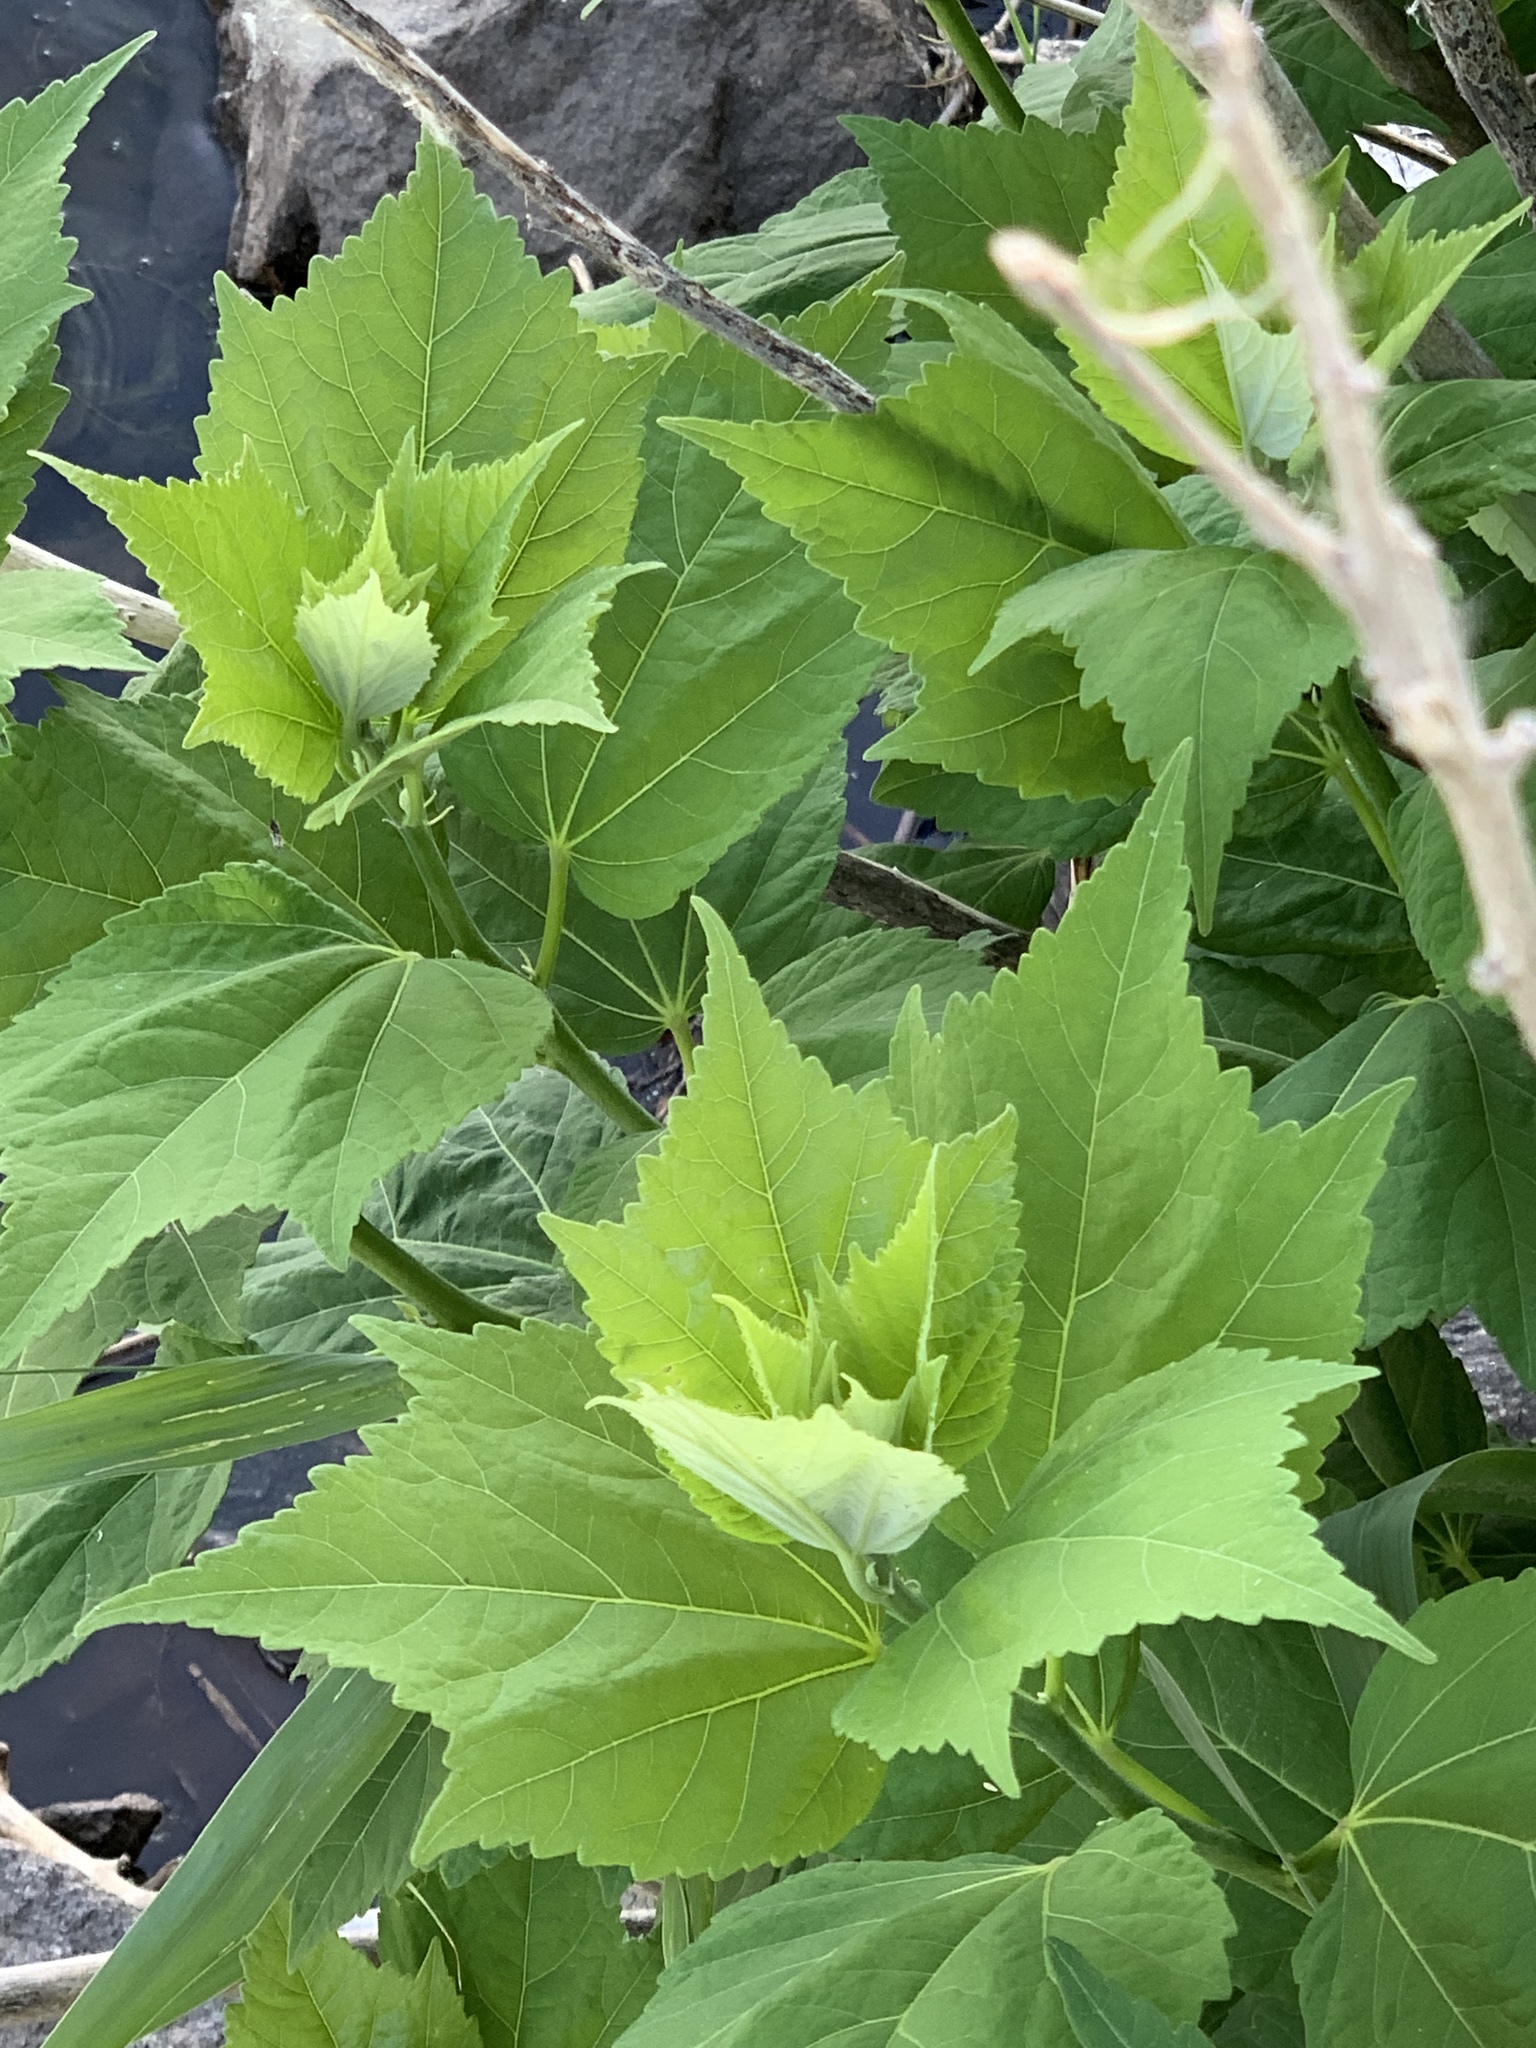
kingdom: Plantae
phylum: Tracheophyta
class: Magnoliopsida
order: Malvales
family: Malvaceae
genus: Hibiscus
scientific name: Hibiscus moscheutos
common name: Common rose-mallow
